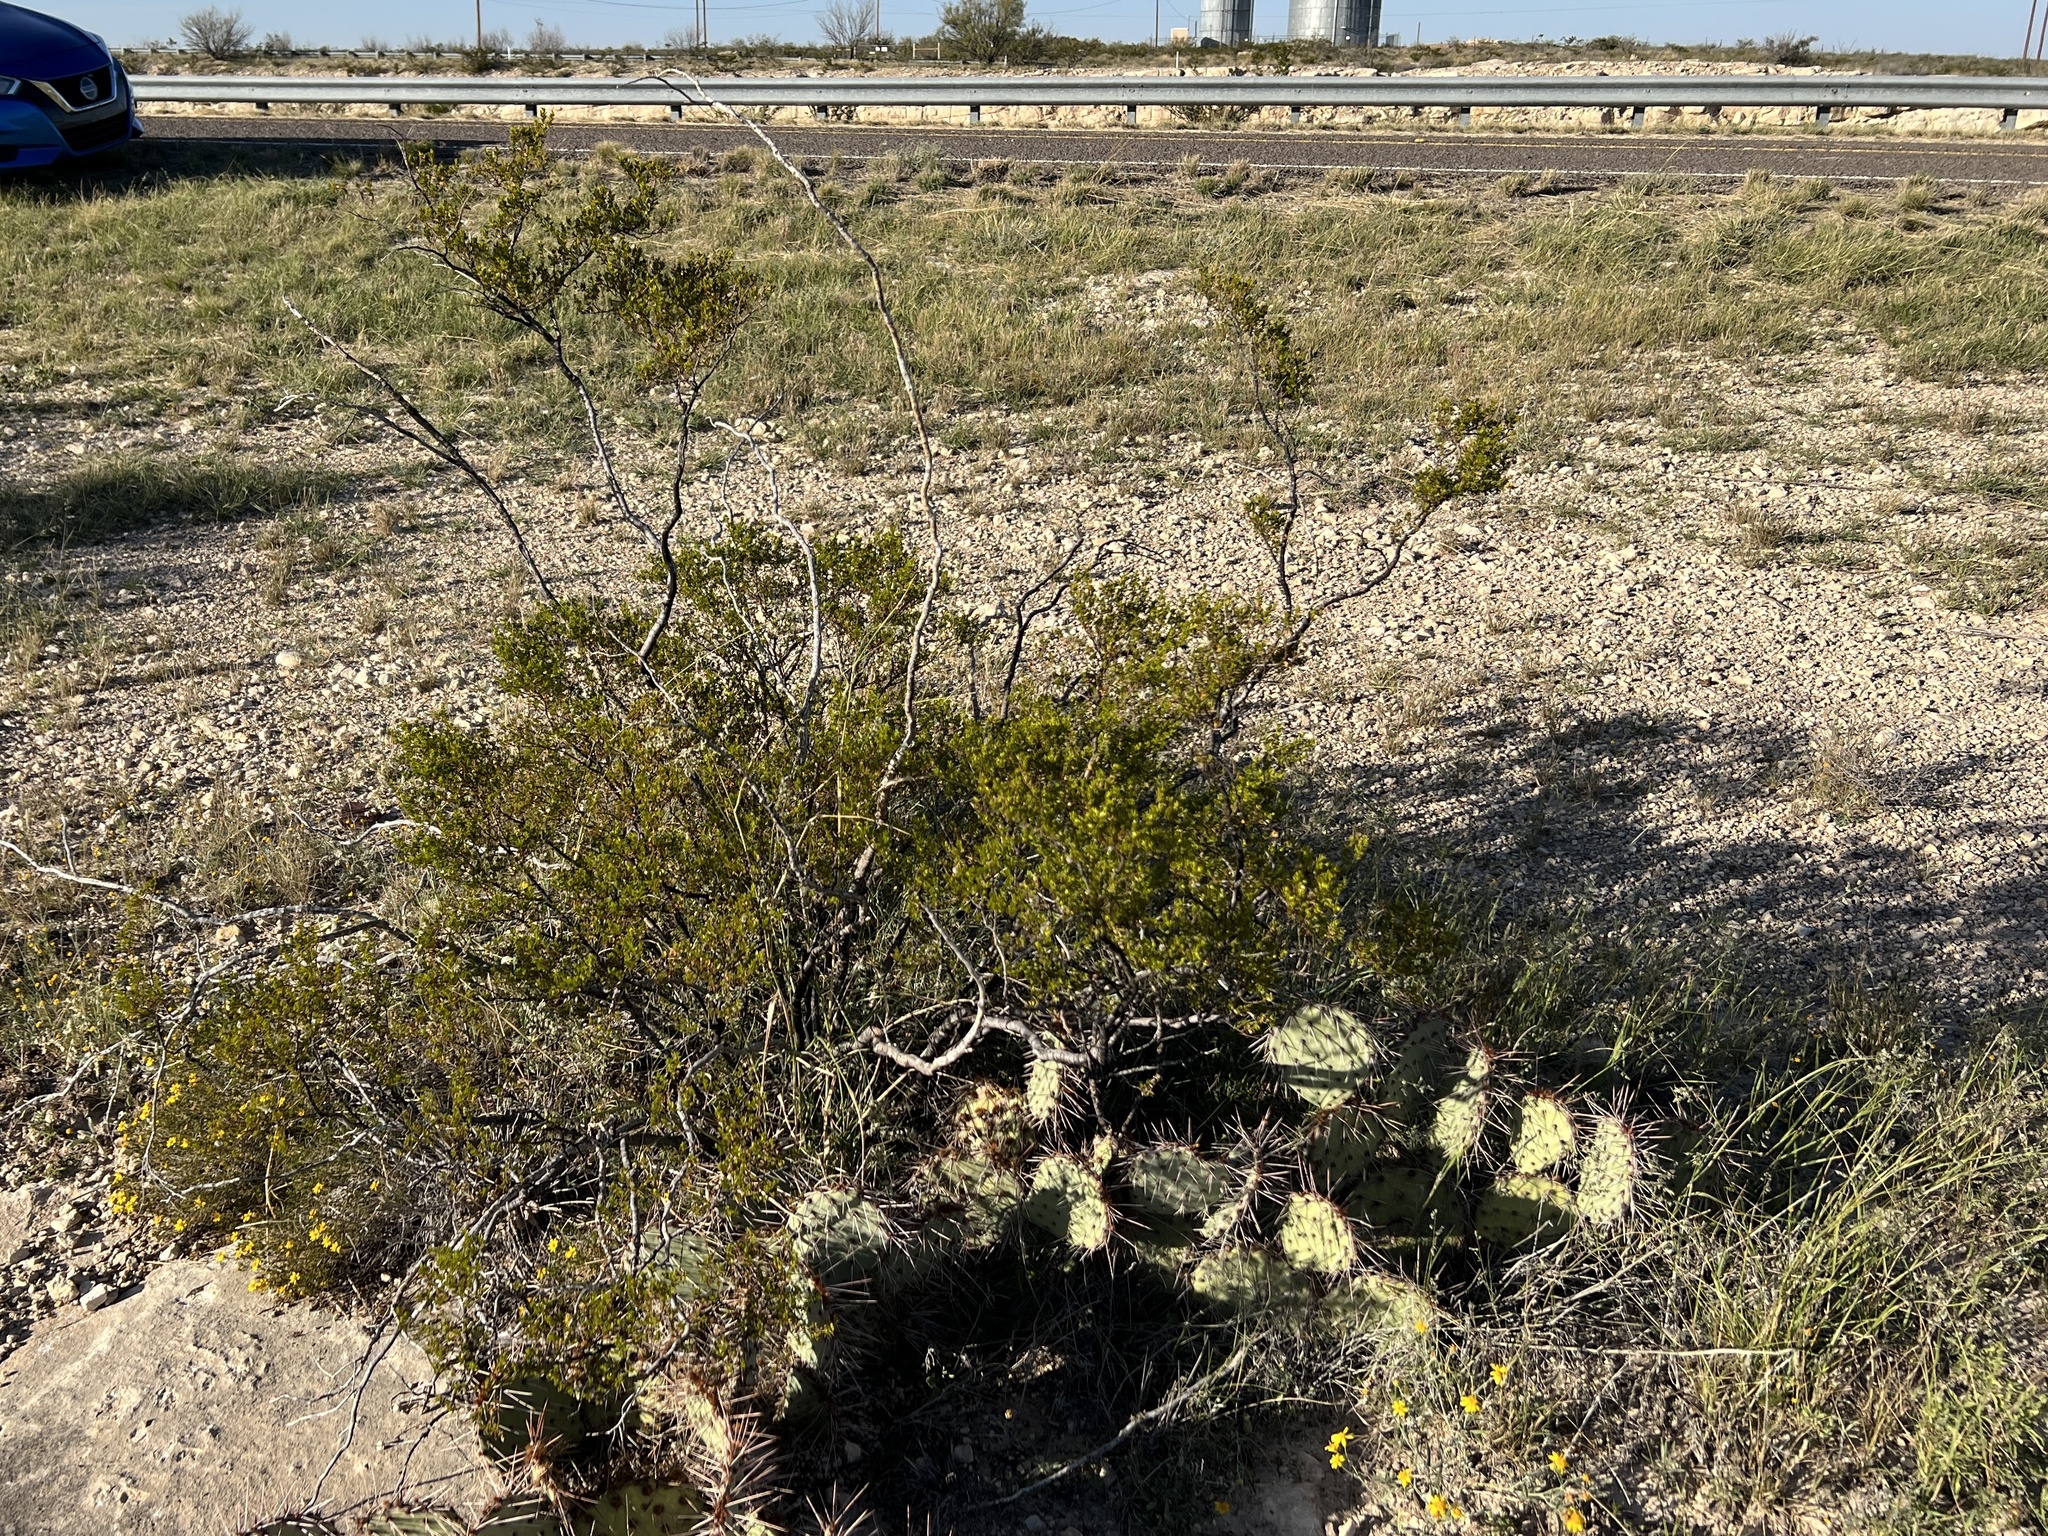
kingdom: Plantae
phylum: Tracheophyta
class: Magnoliopsida
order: Zygophyllales
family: Zygophyllaceae
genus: Larrea
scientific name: Larrea tridentata
